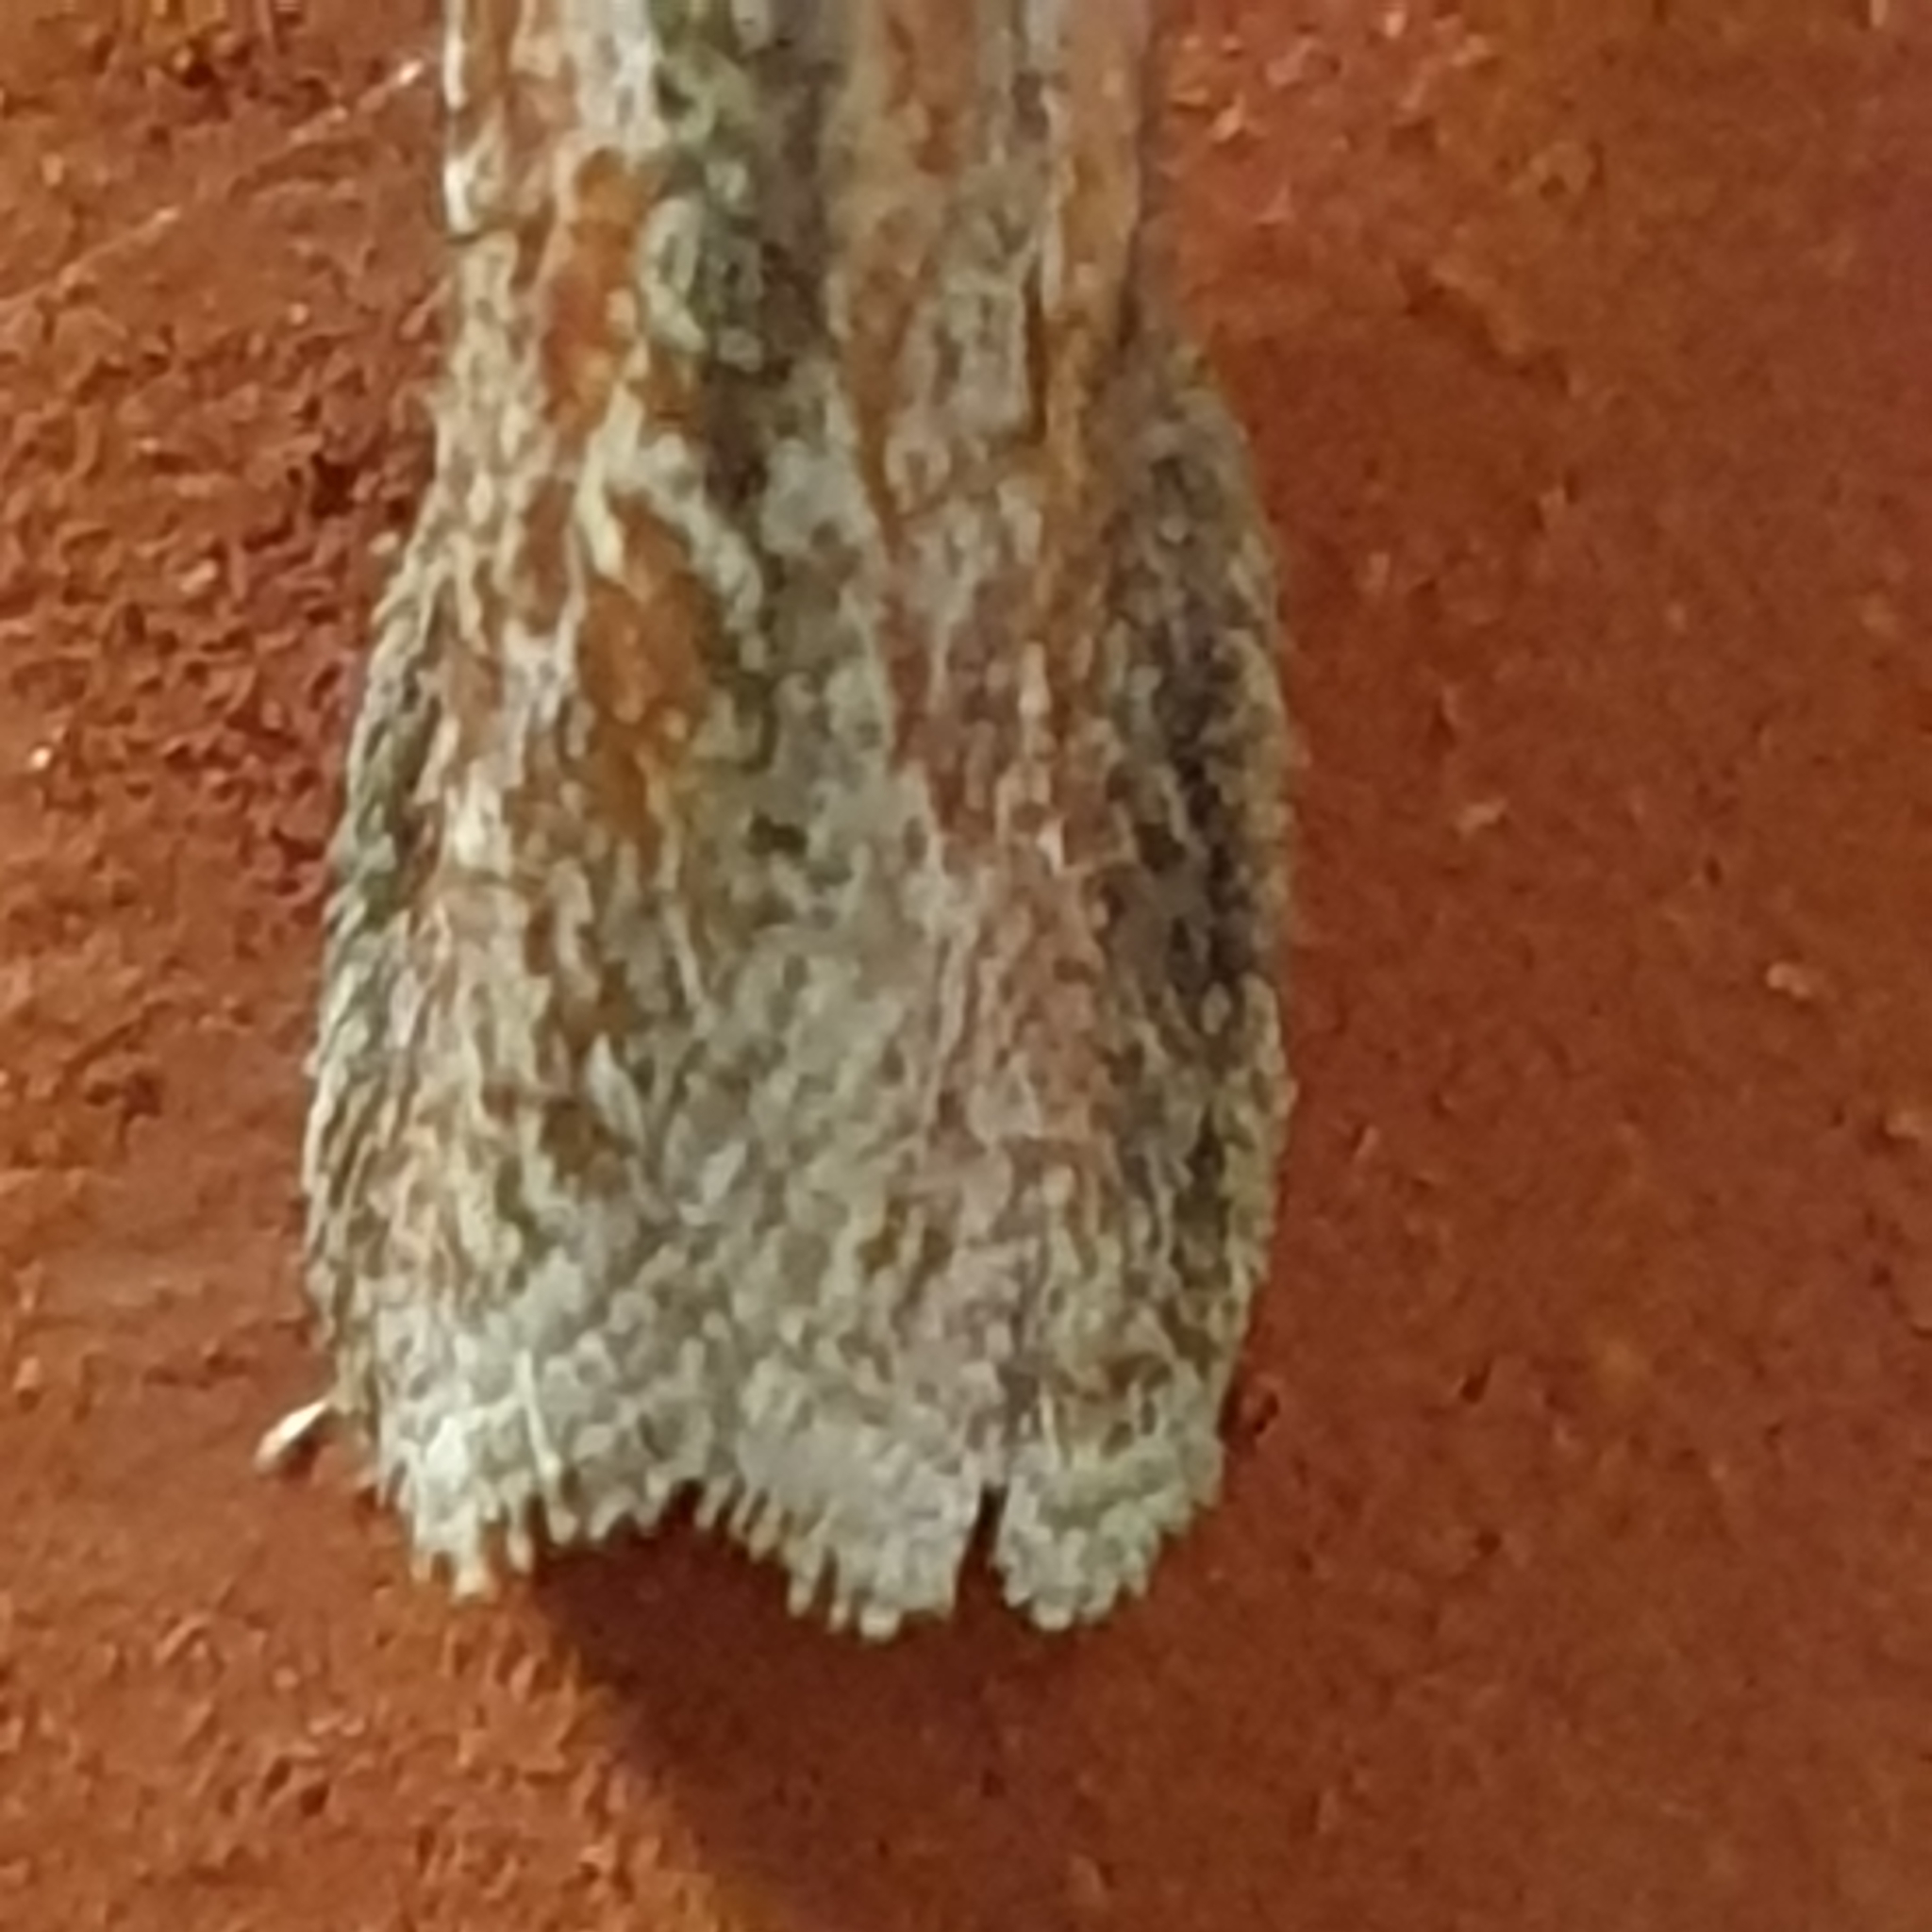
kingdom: Animalia
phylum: Arthropoda
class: Insecta
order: Lepidoptera
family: Pyralidae
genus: Selagia
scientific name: Selagia spadicella
